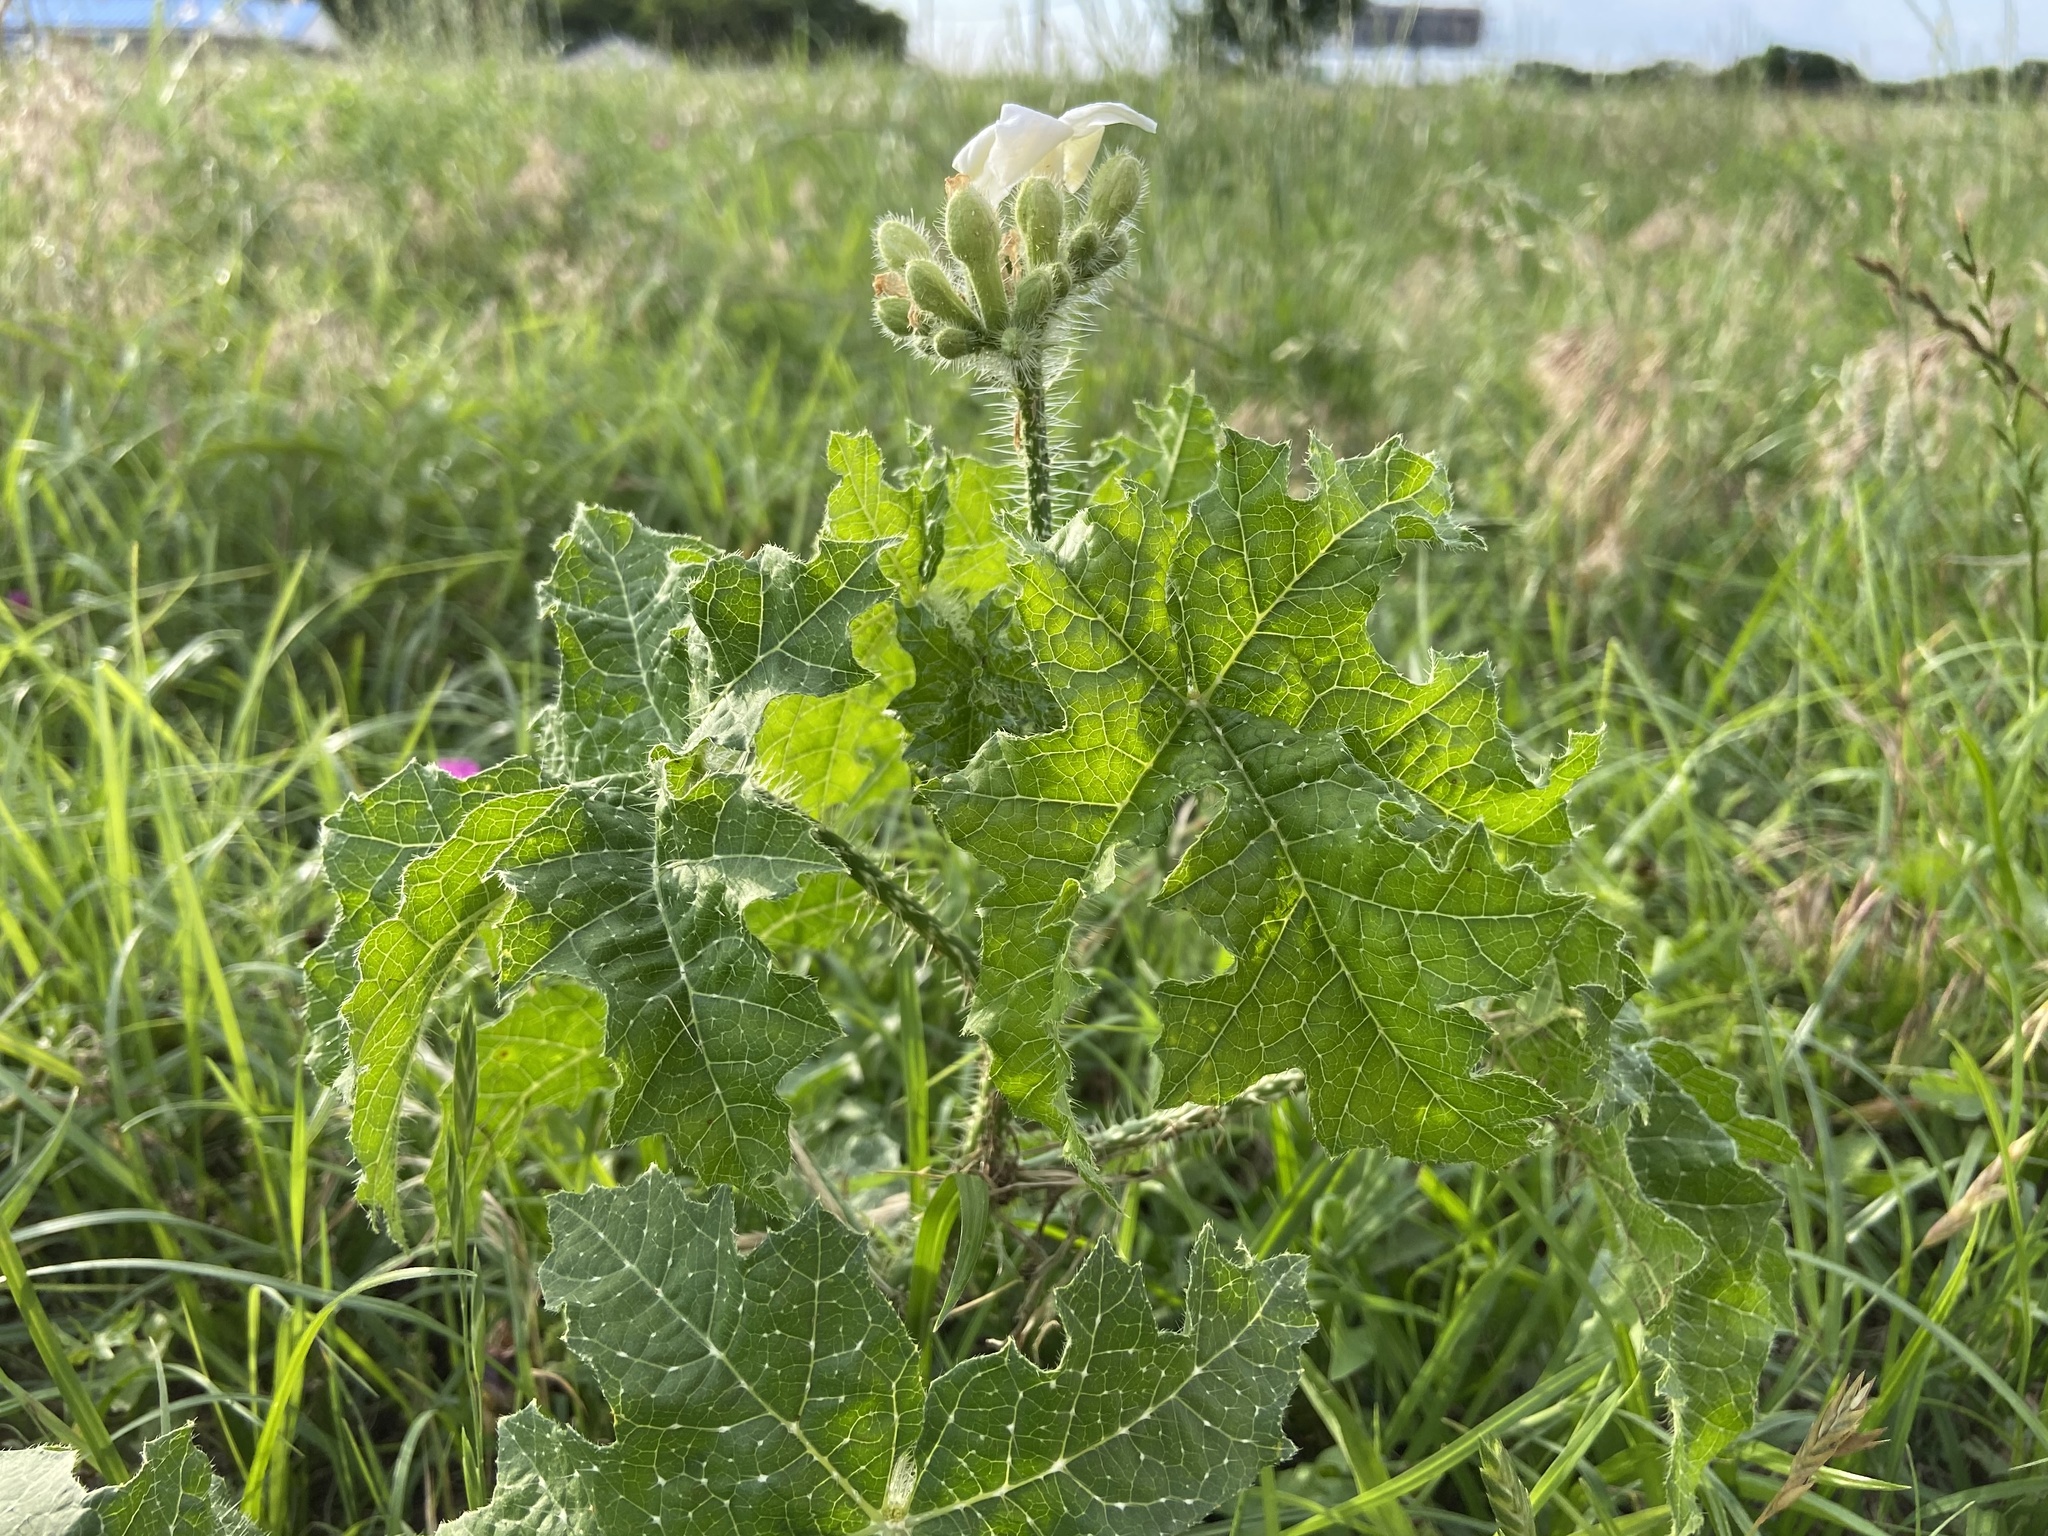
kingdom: Plantae
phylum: Tracheophyta
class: Magnoliopsida
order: Malpighiales
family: Euphorbiaceae
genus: Cnidoscolus
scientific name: Cnidoscolus texanus
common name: Texas bull-nettle
